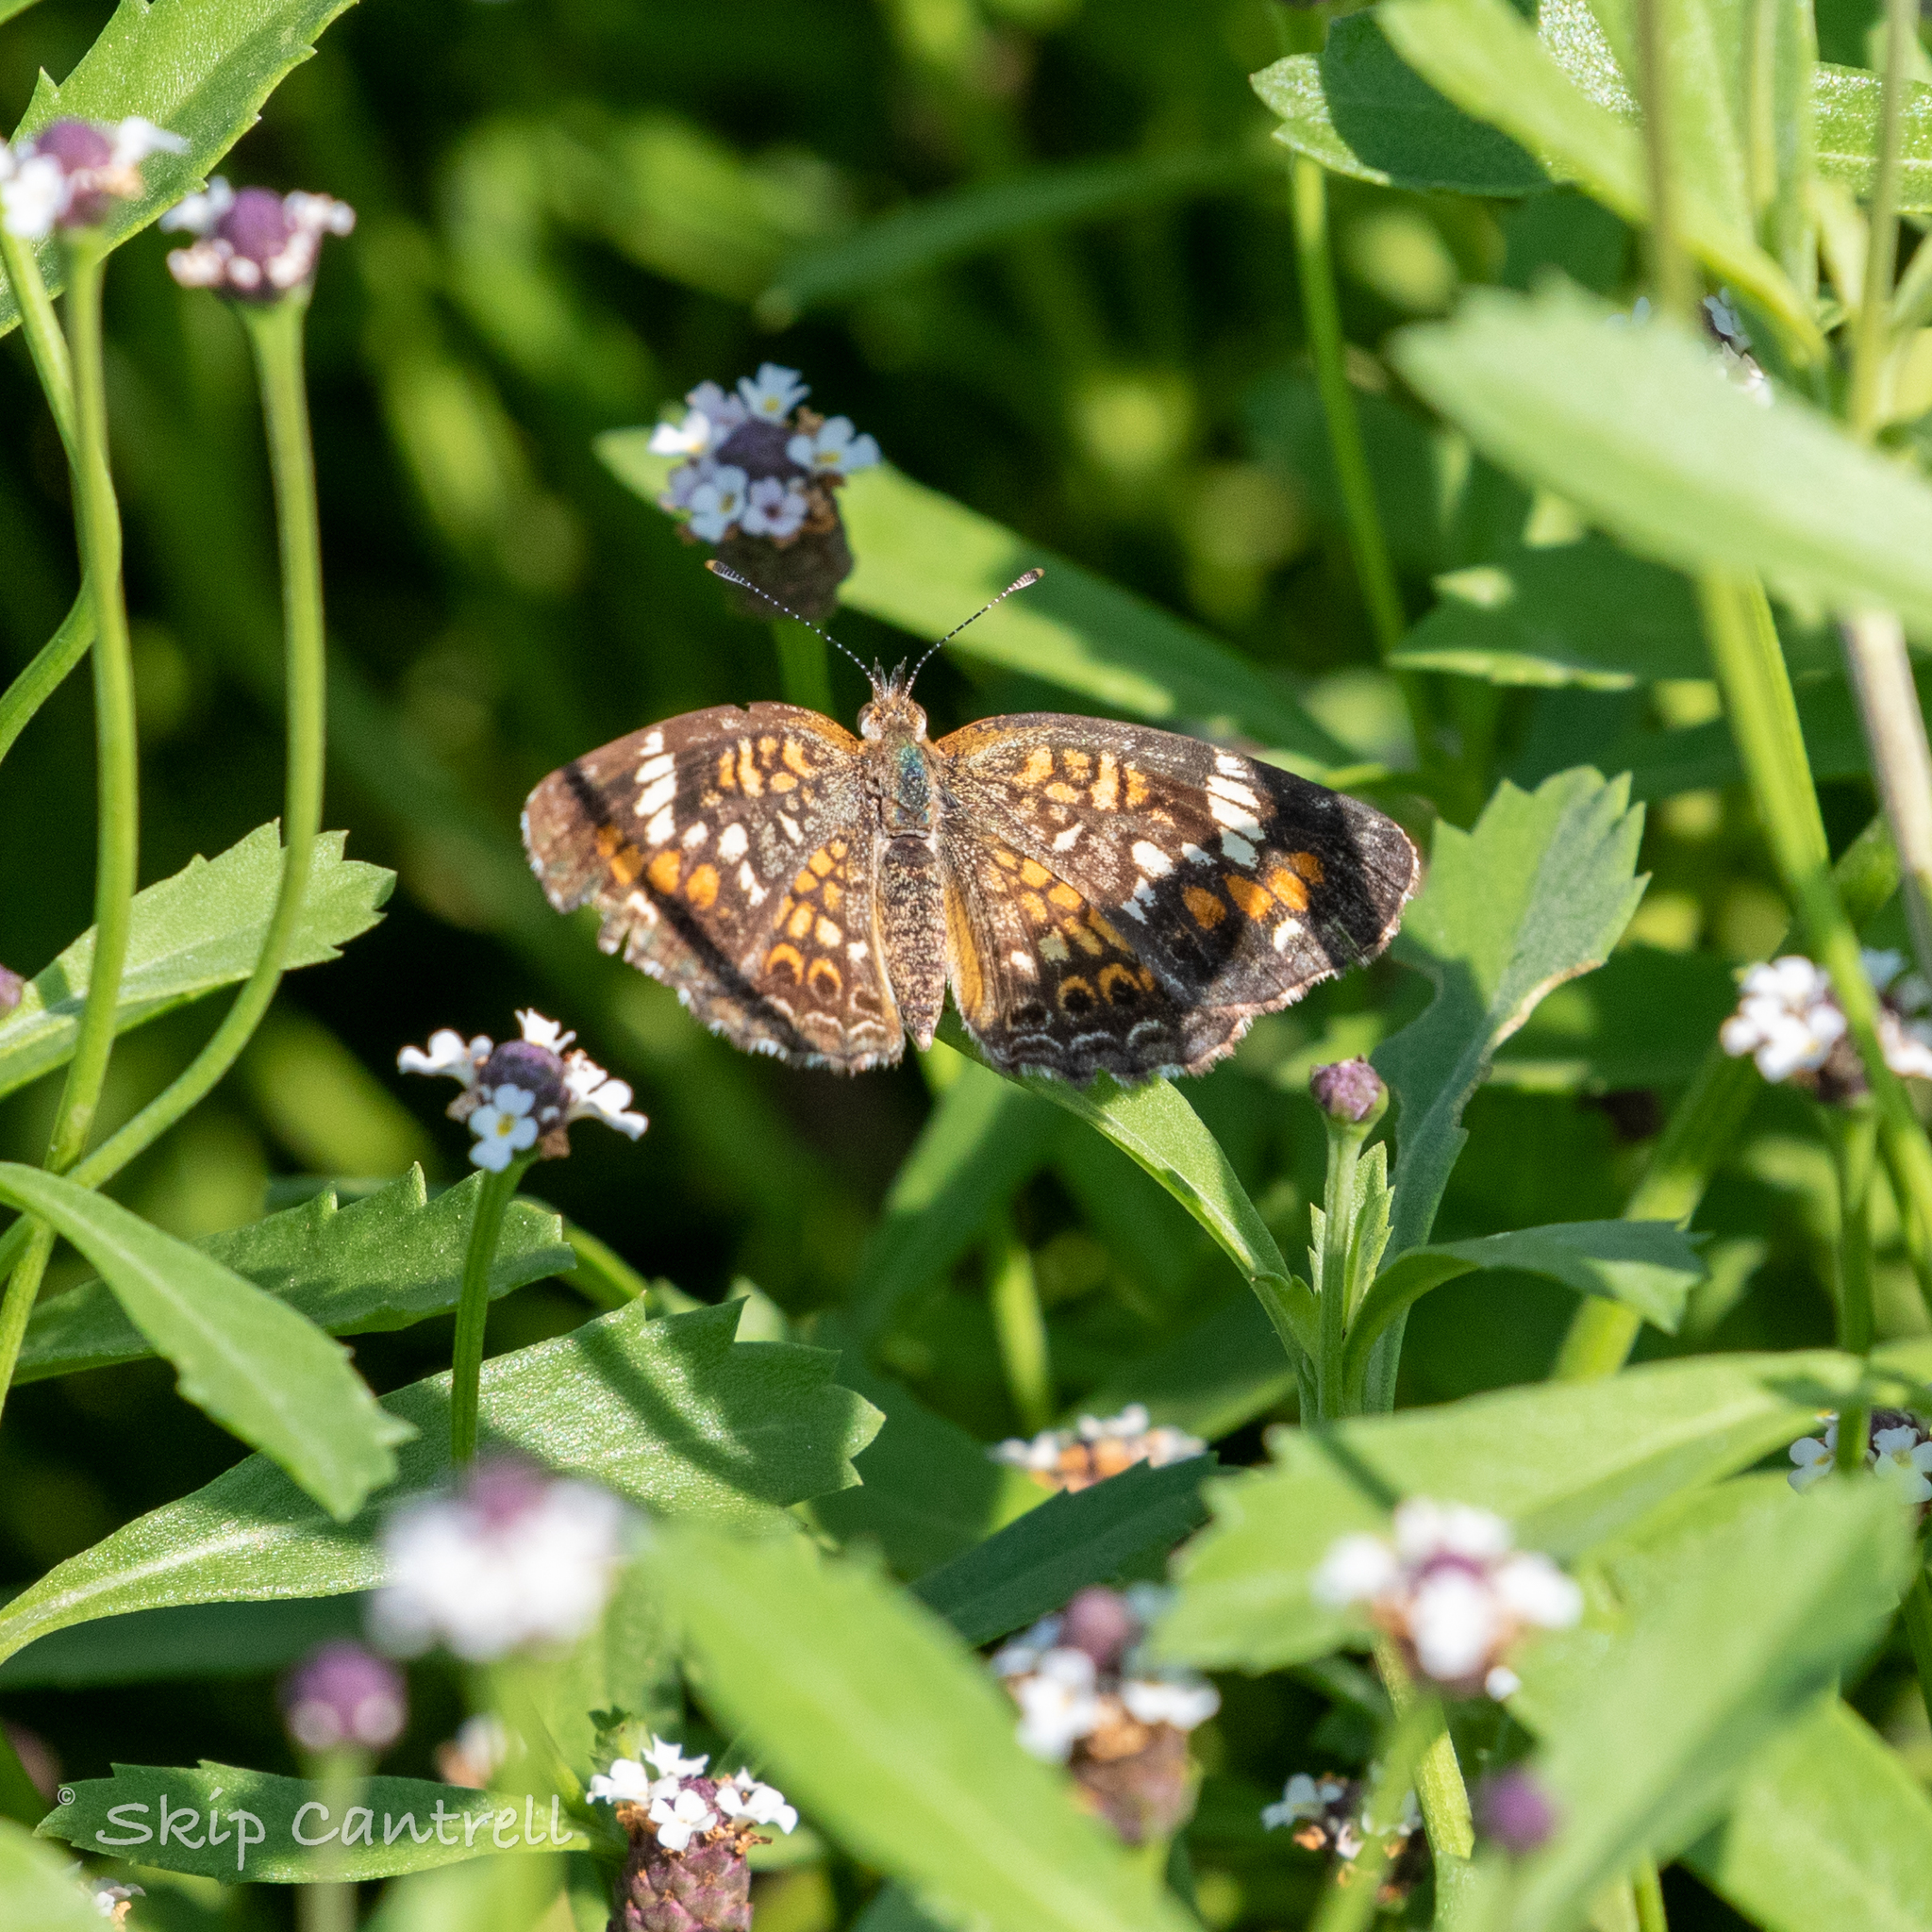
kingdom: Animalia
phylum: Arthropoda
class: Insecta
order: Lepidoptera
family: Nymphalidae
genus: Phyciodes
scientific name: Phyciodes phaon
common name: Phaon crescent
